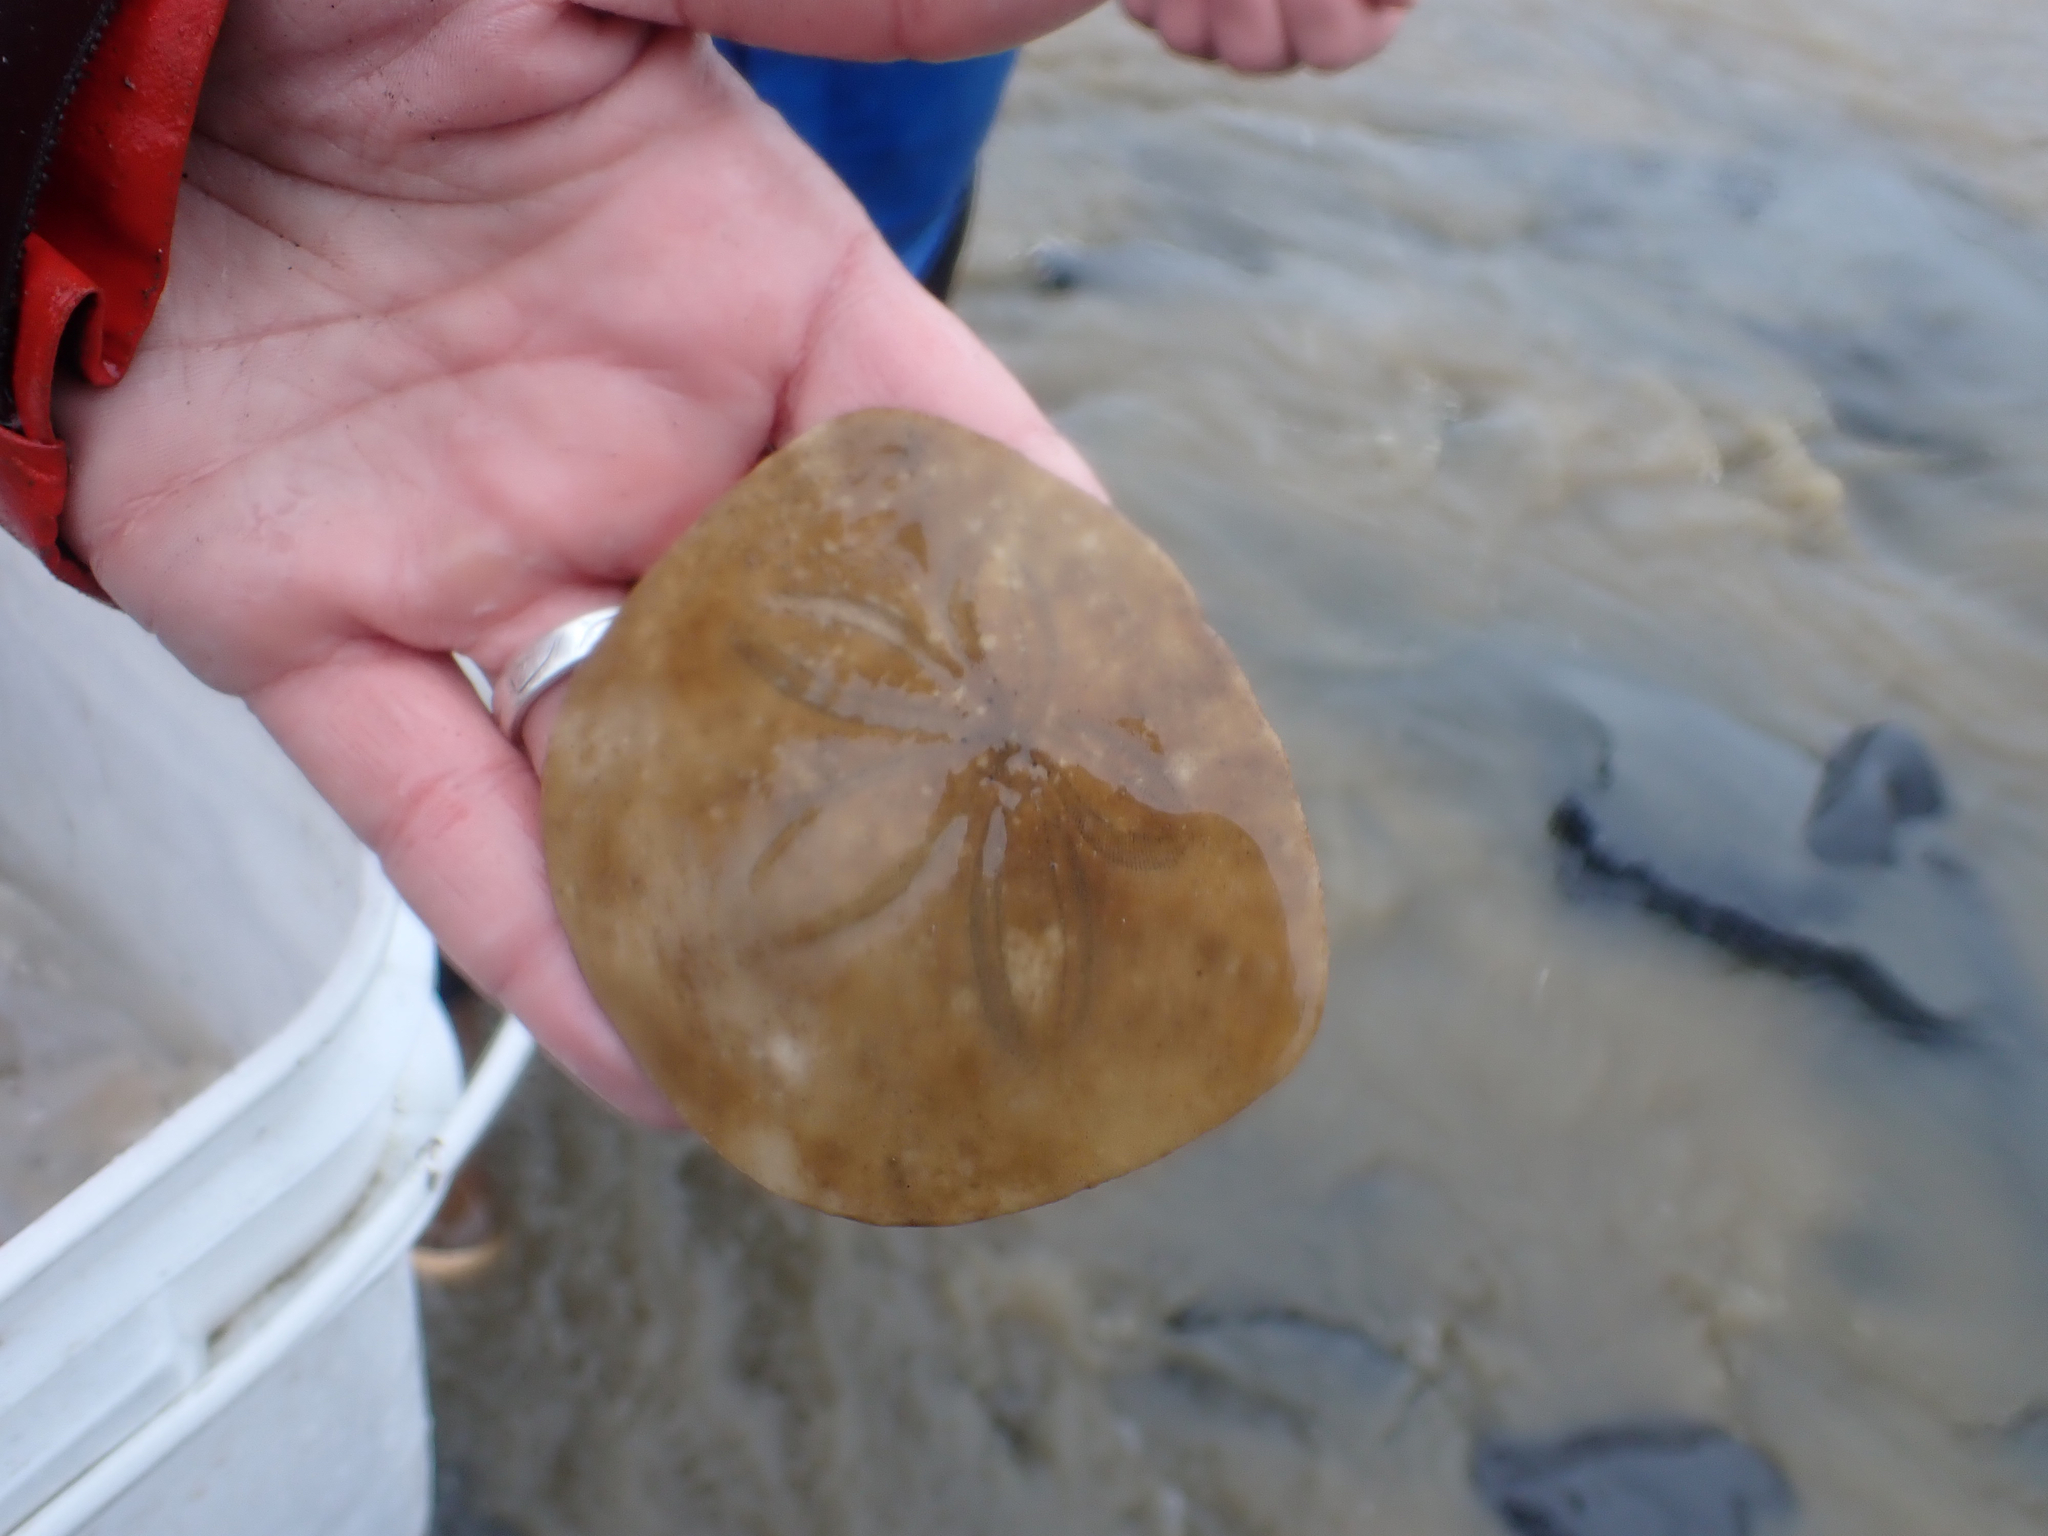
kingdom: Animalia
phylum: Echinodermata
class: Echinoidea
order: Echinolampadacea
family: Dendrasteridae
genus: Dendraster
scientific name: Dendraster excentricus
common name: Eccentric sand dollar sea urchin
